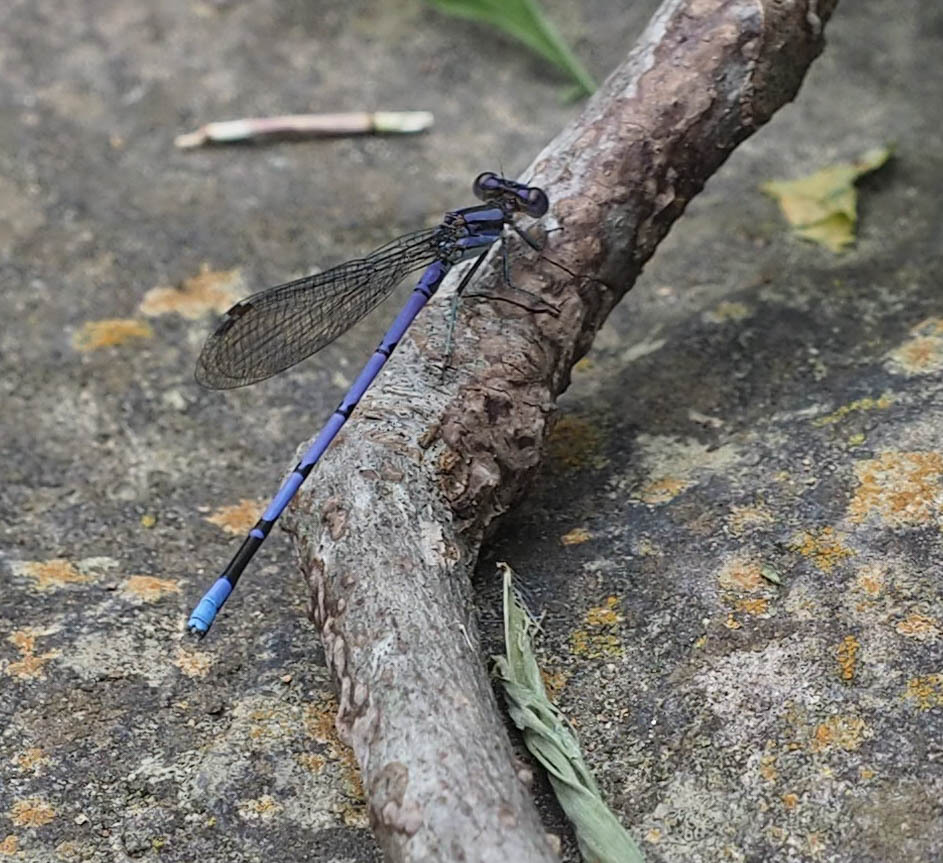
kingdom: Animalia
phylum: Arthropoda
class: Insecta
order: Odonata
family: Coenagrionidae
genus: Argia
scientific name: Argia fumipennis
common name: Variable dancer
